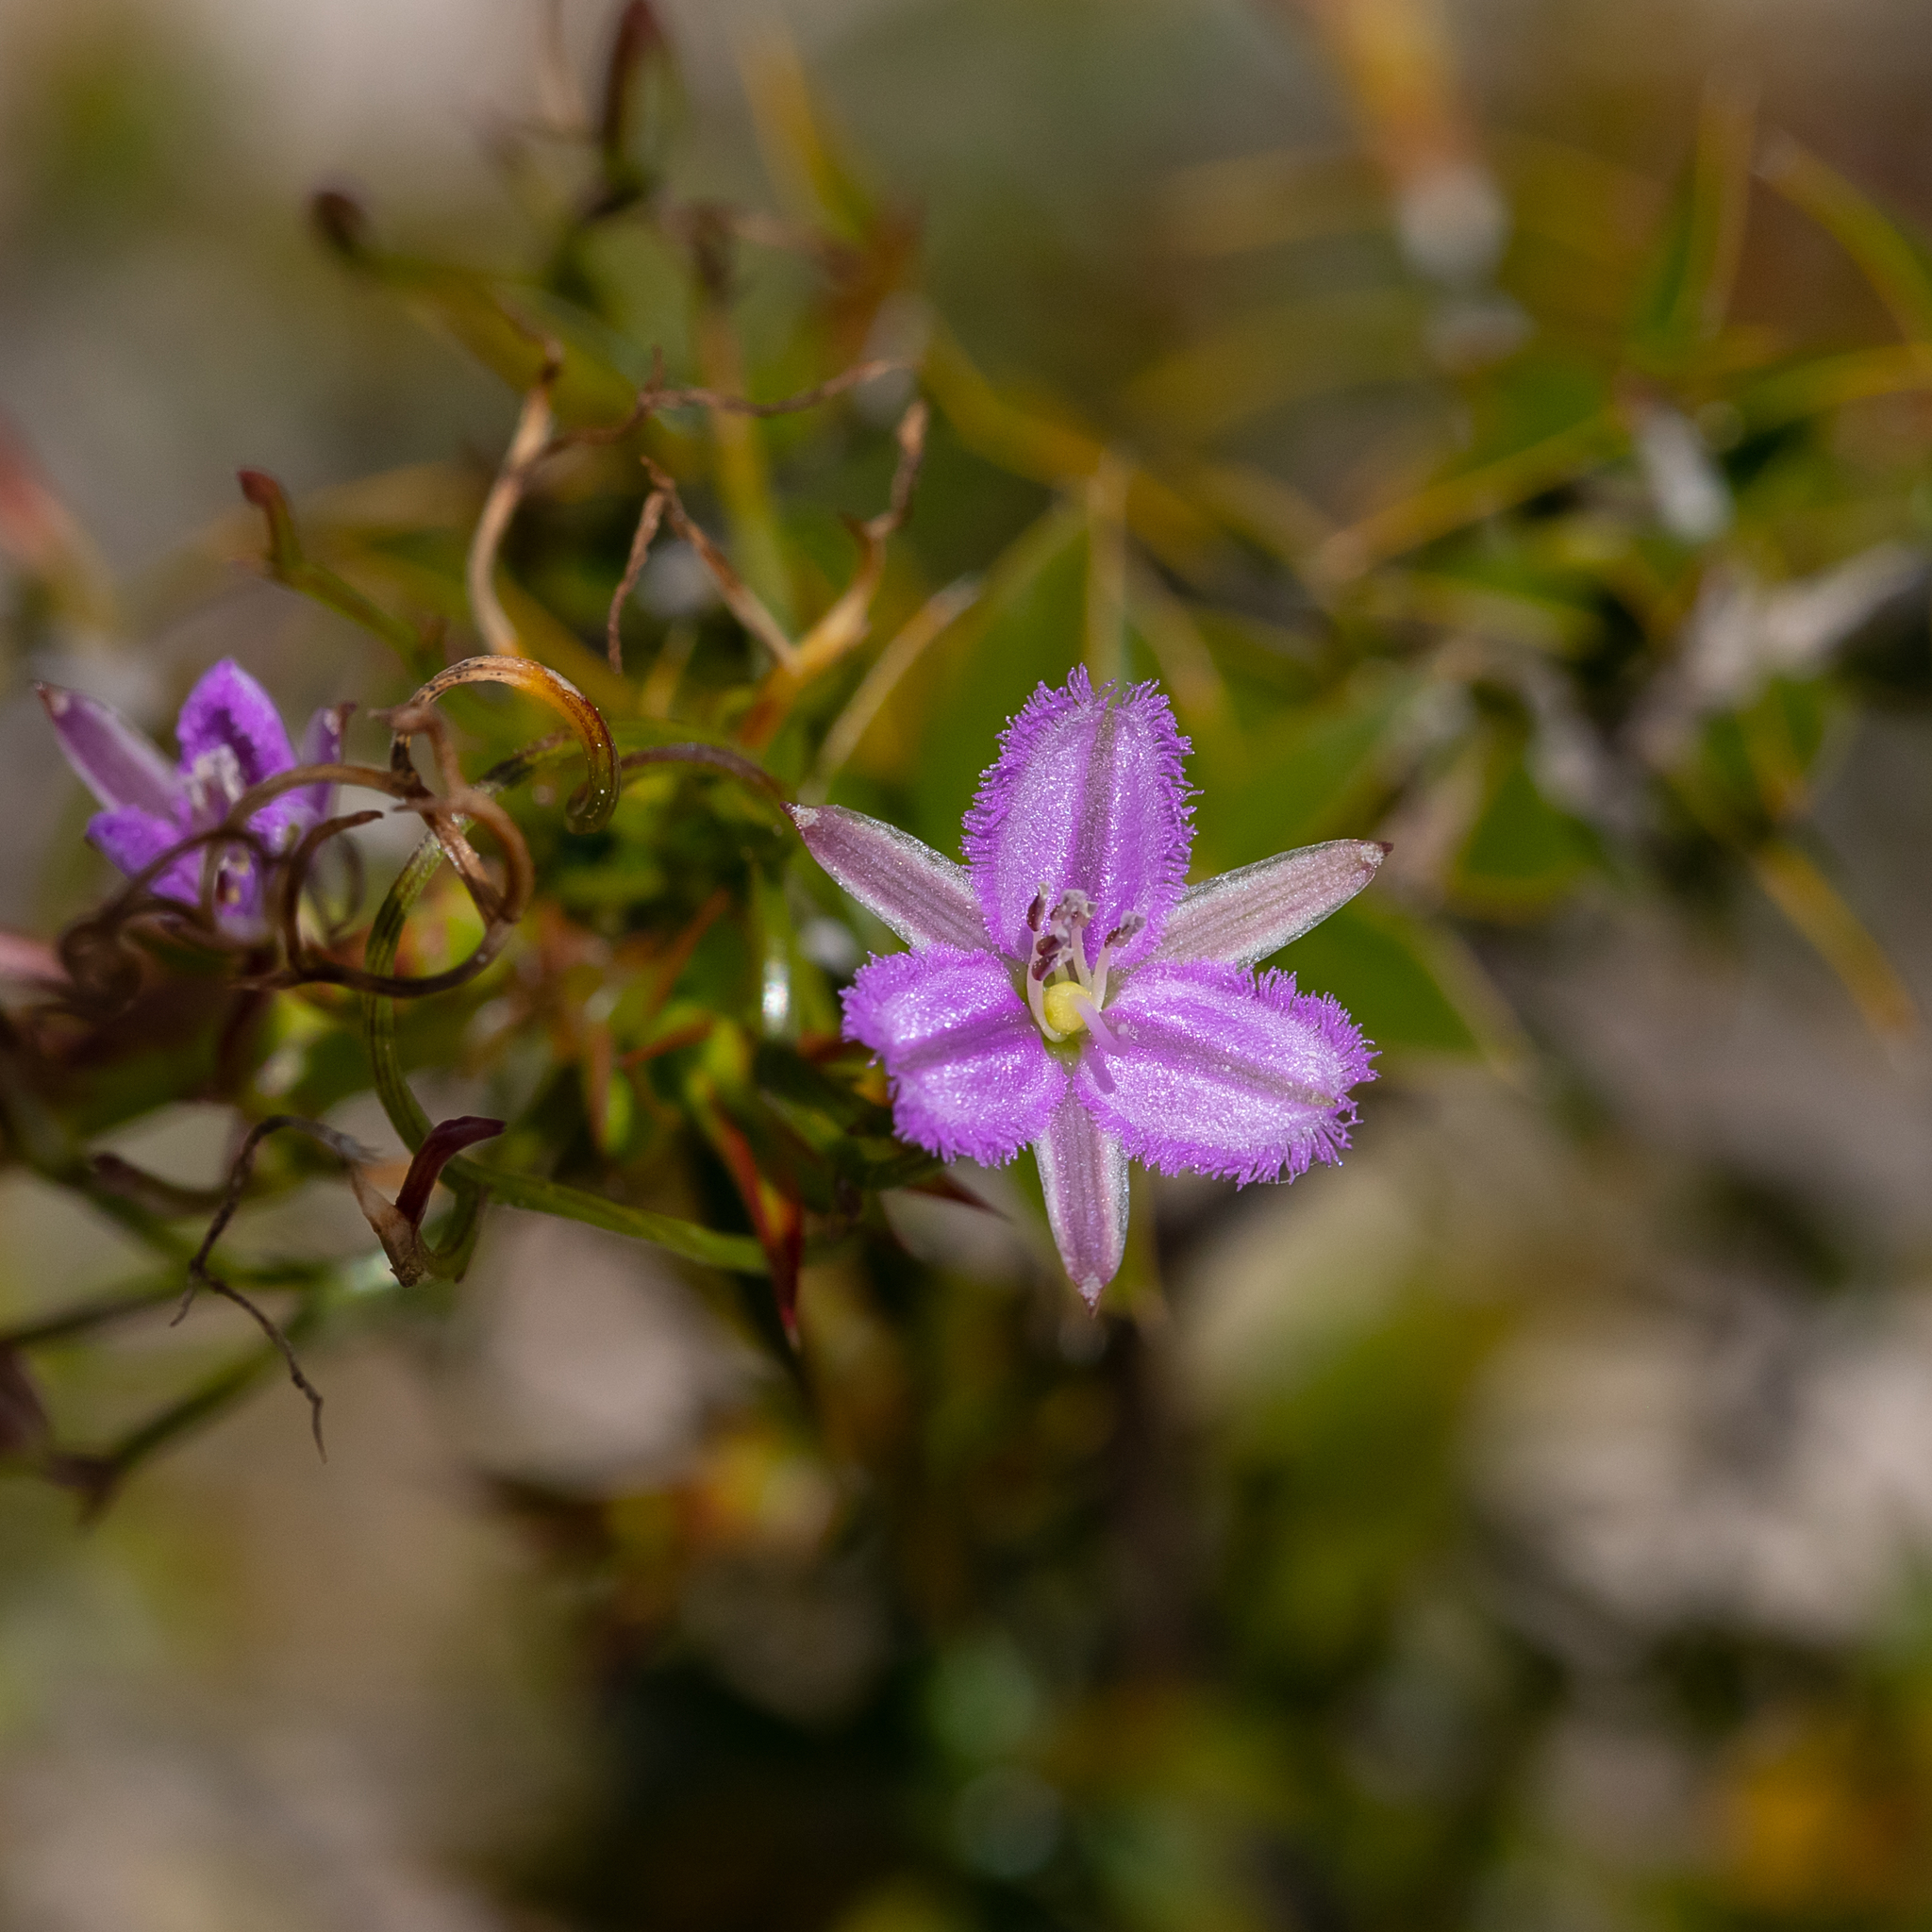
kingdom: Plantae
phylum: Tracheophyta
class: Liliopsida
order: Asparagales
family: Asparagaceae
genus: Thysanotus
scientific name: Thysanotus patersonii
